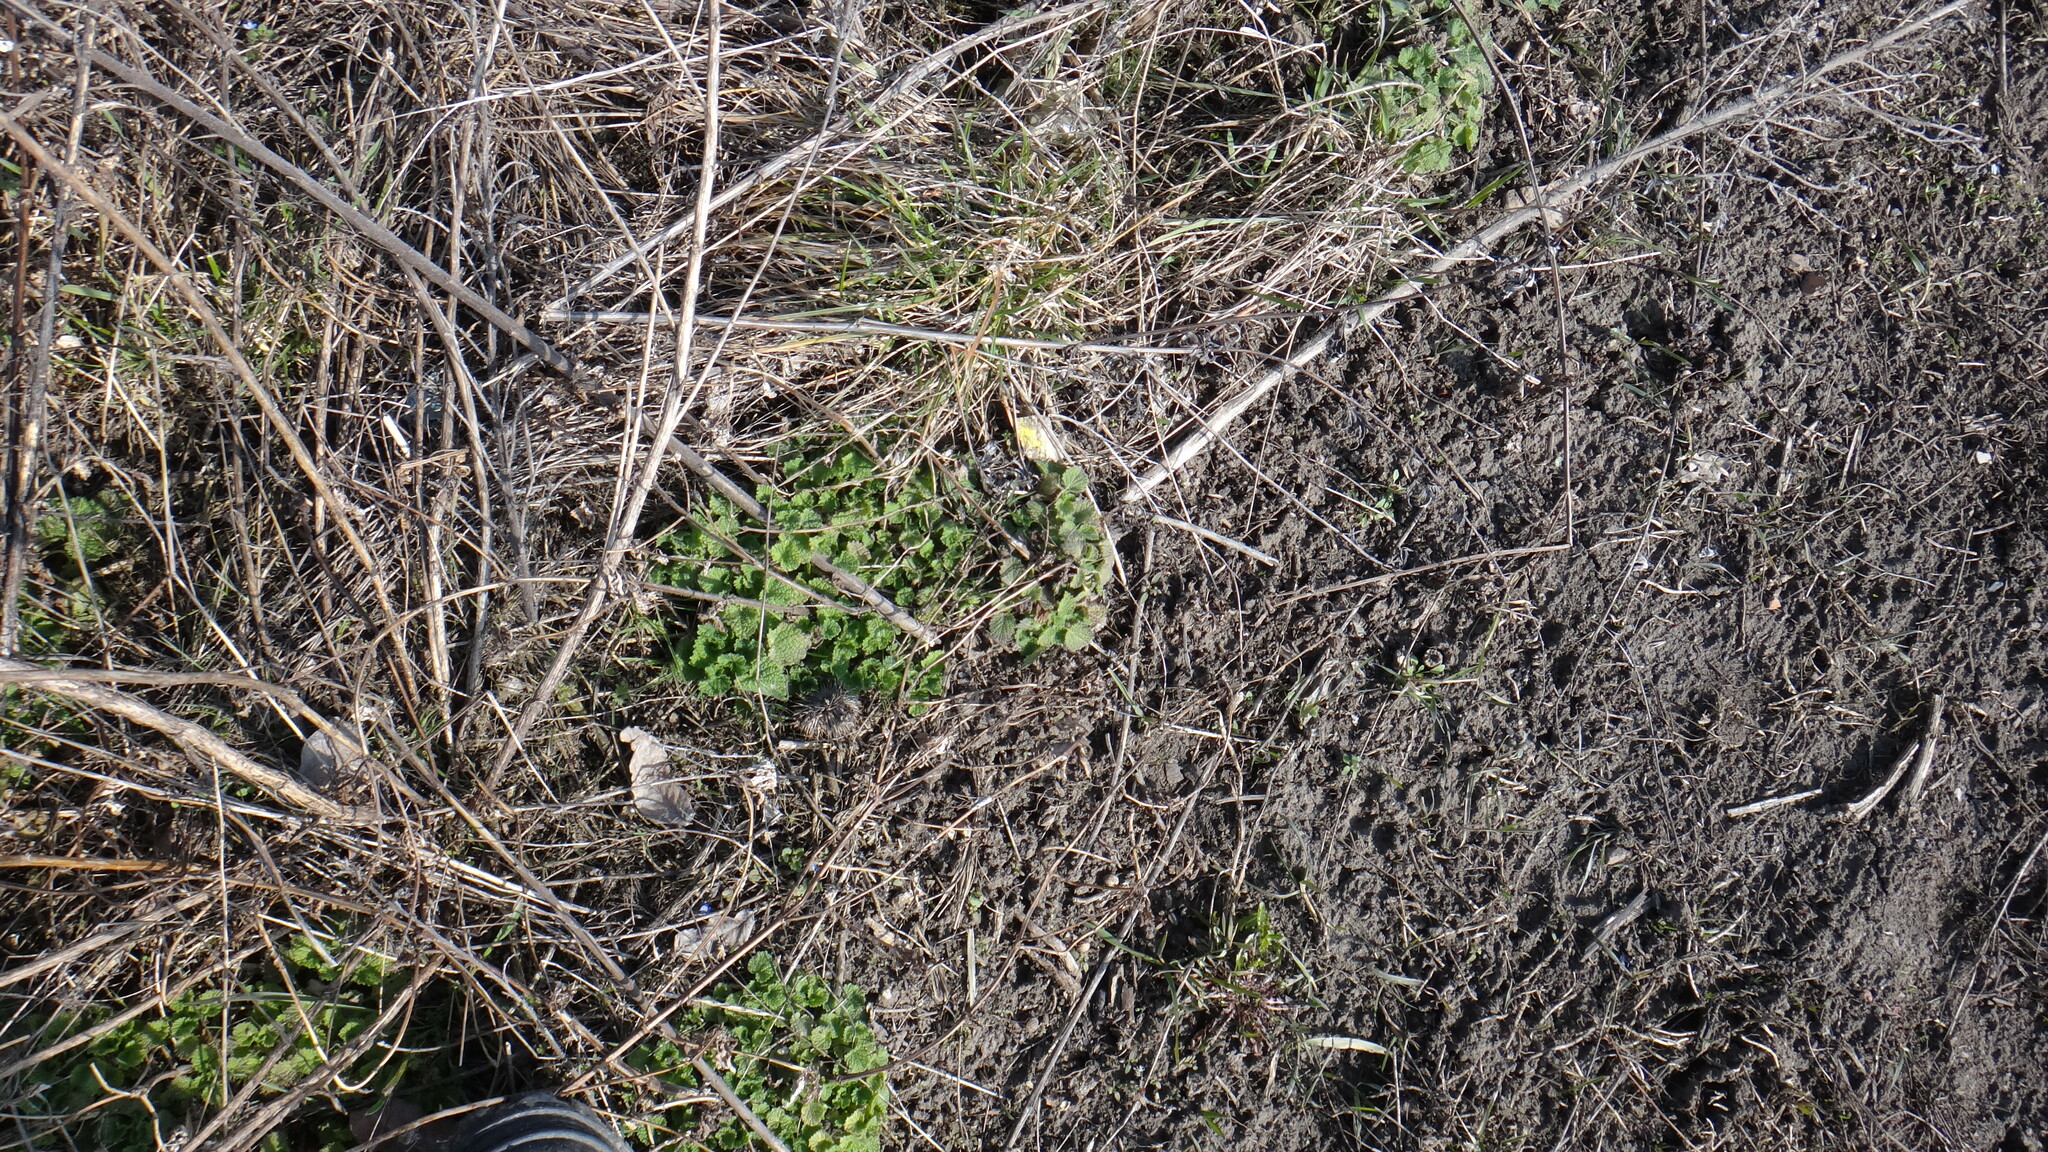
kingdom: Plantae
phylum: Tracheophyta
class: Magnoliopsida
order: Lamiales
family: Lamiaceae
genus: Ballota
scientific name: Ballota nigra
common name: Black horehound
